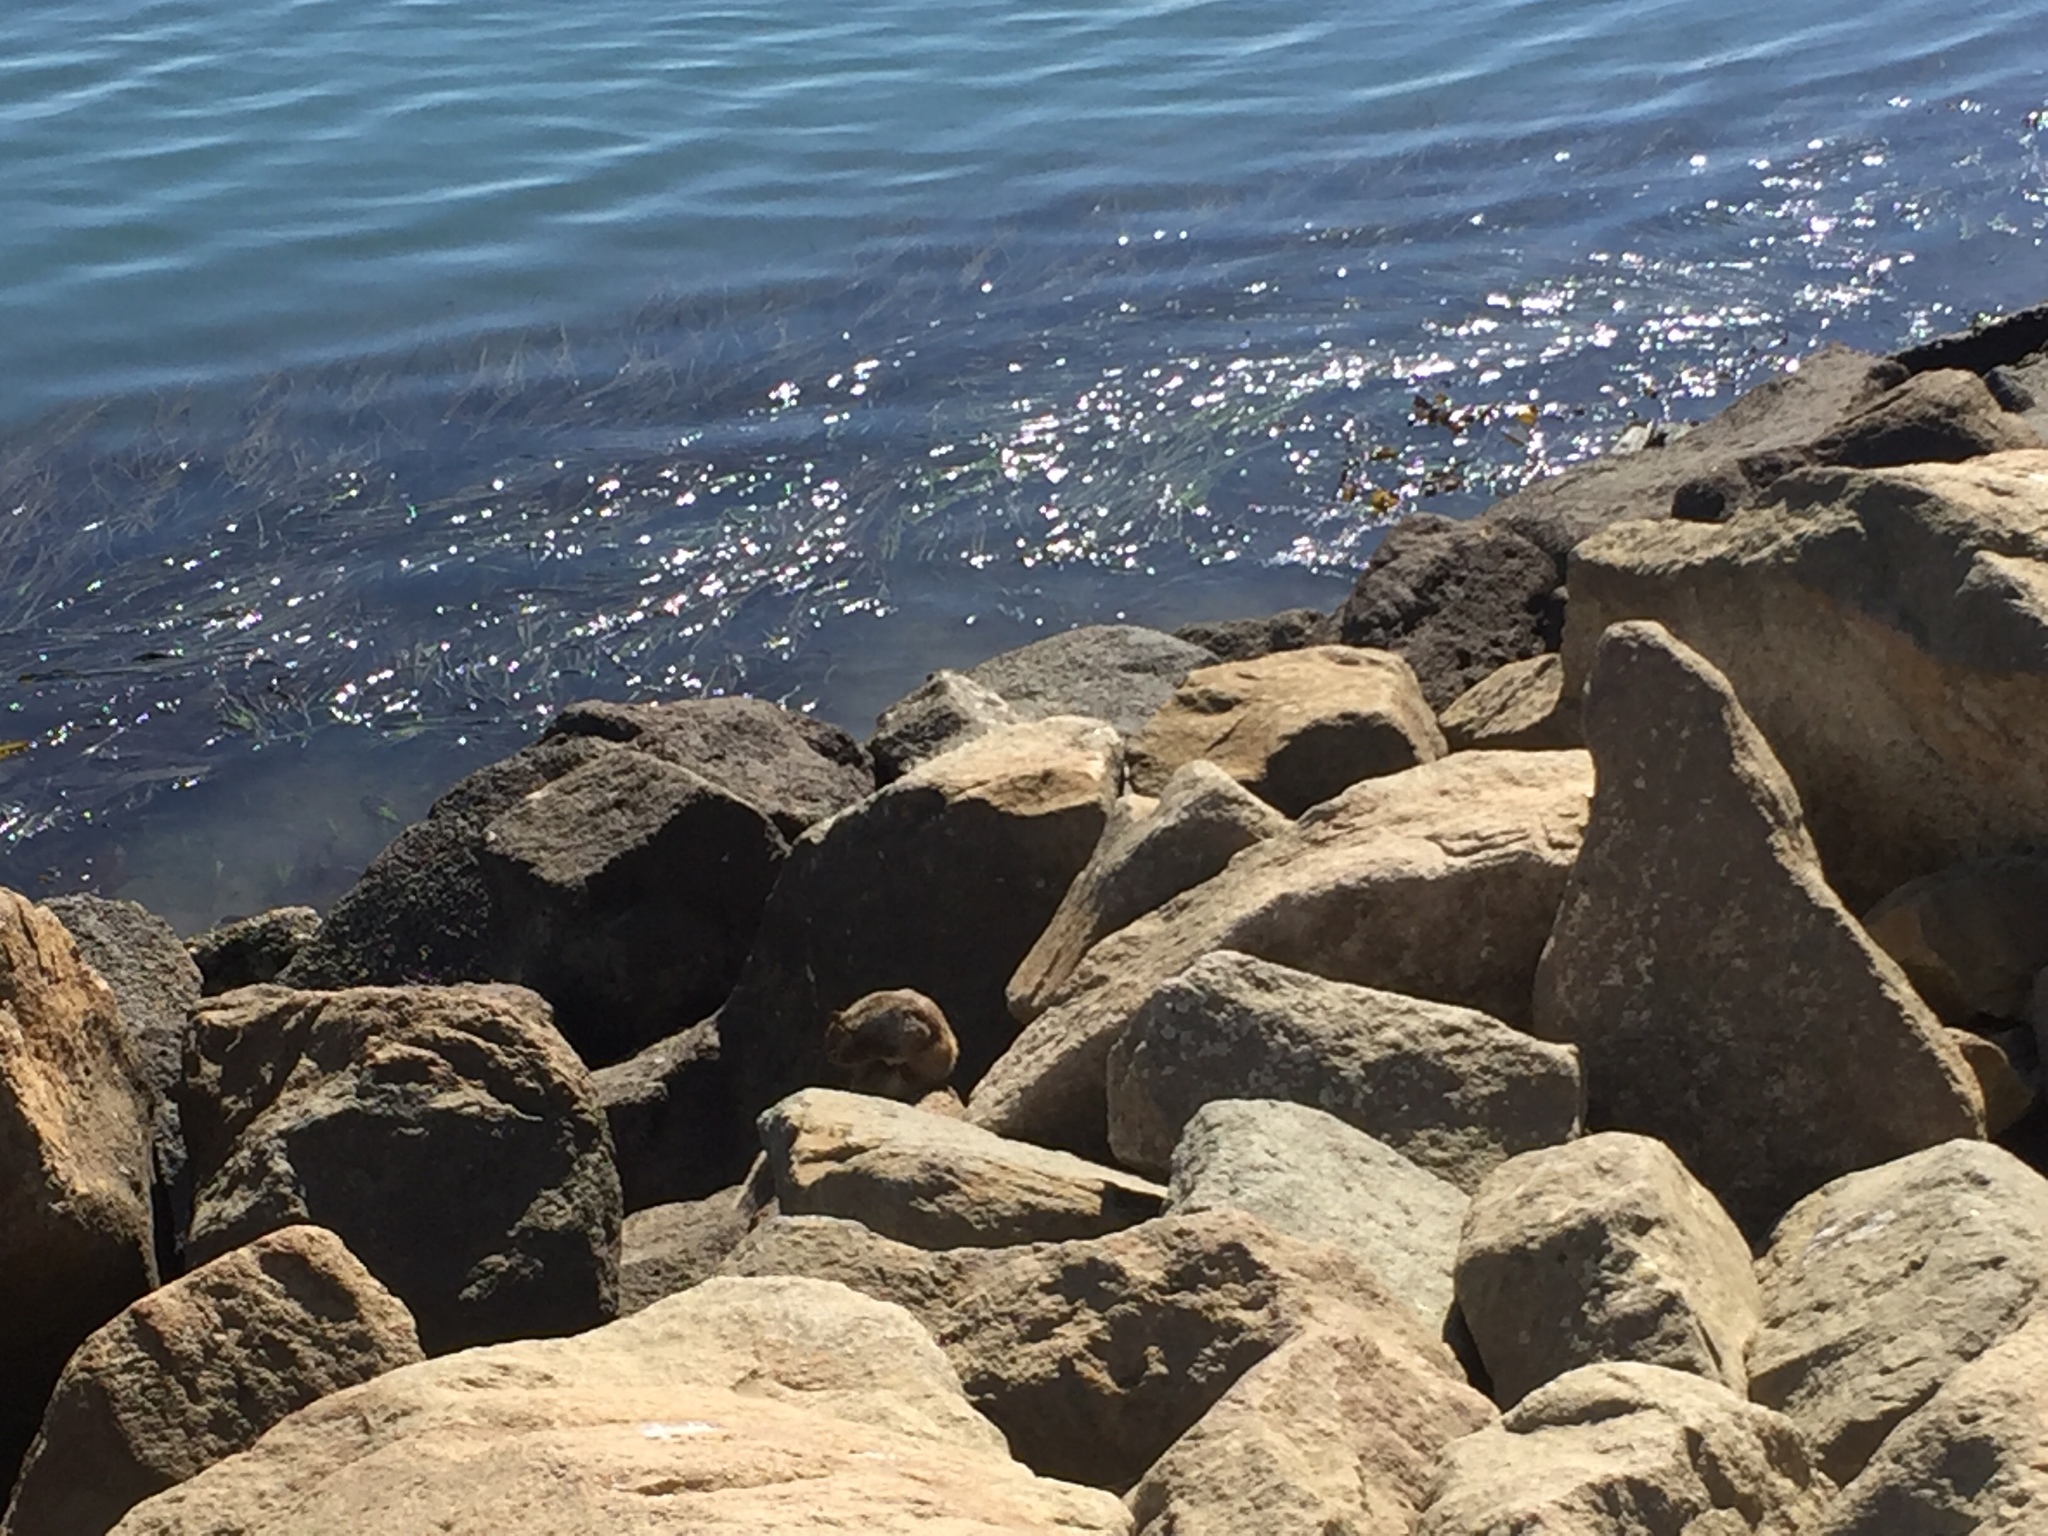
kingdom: Animalia
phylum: Chordata
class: Mammalia
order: Rodentia
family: Sciuridae
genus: Otospermophilus
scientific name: Otospermophilus beecheyi
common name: California ground squirrel
